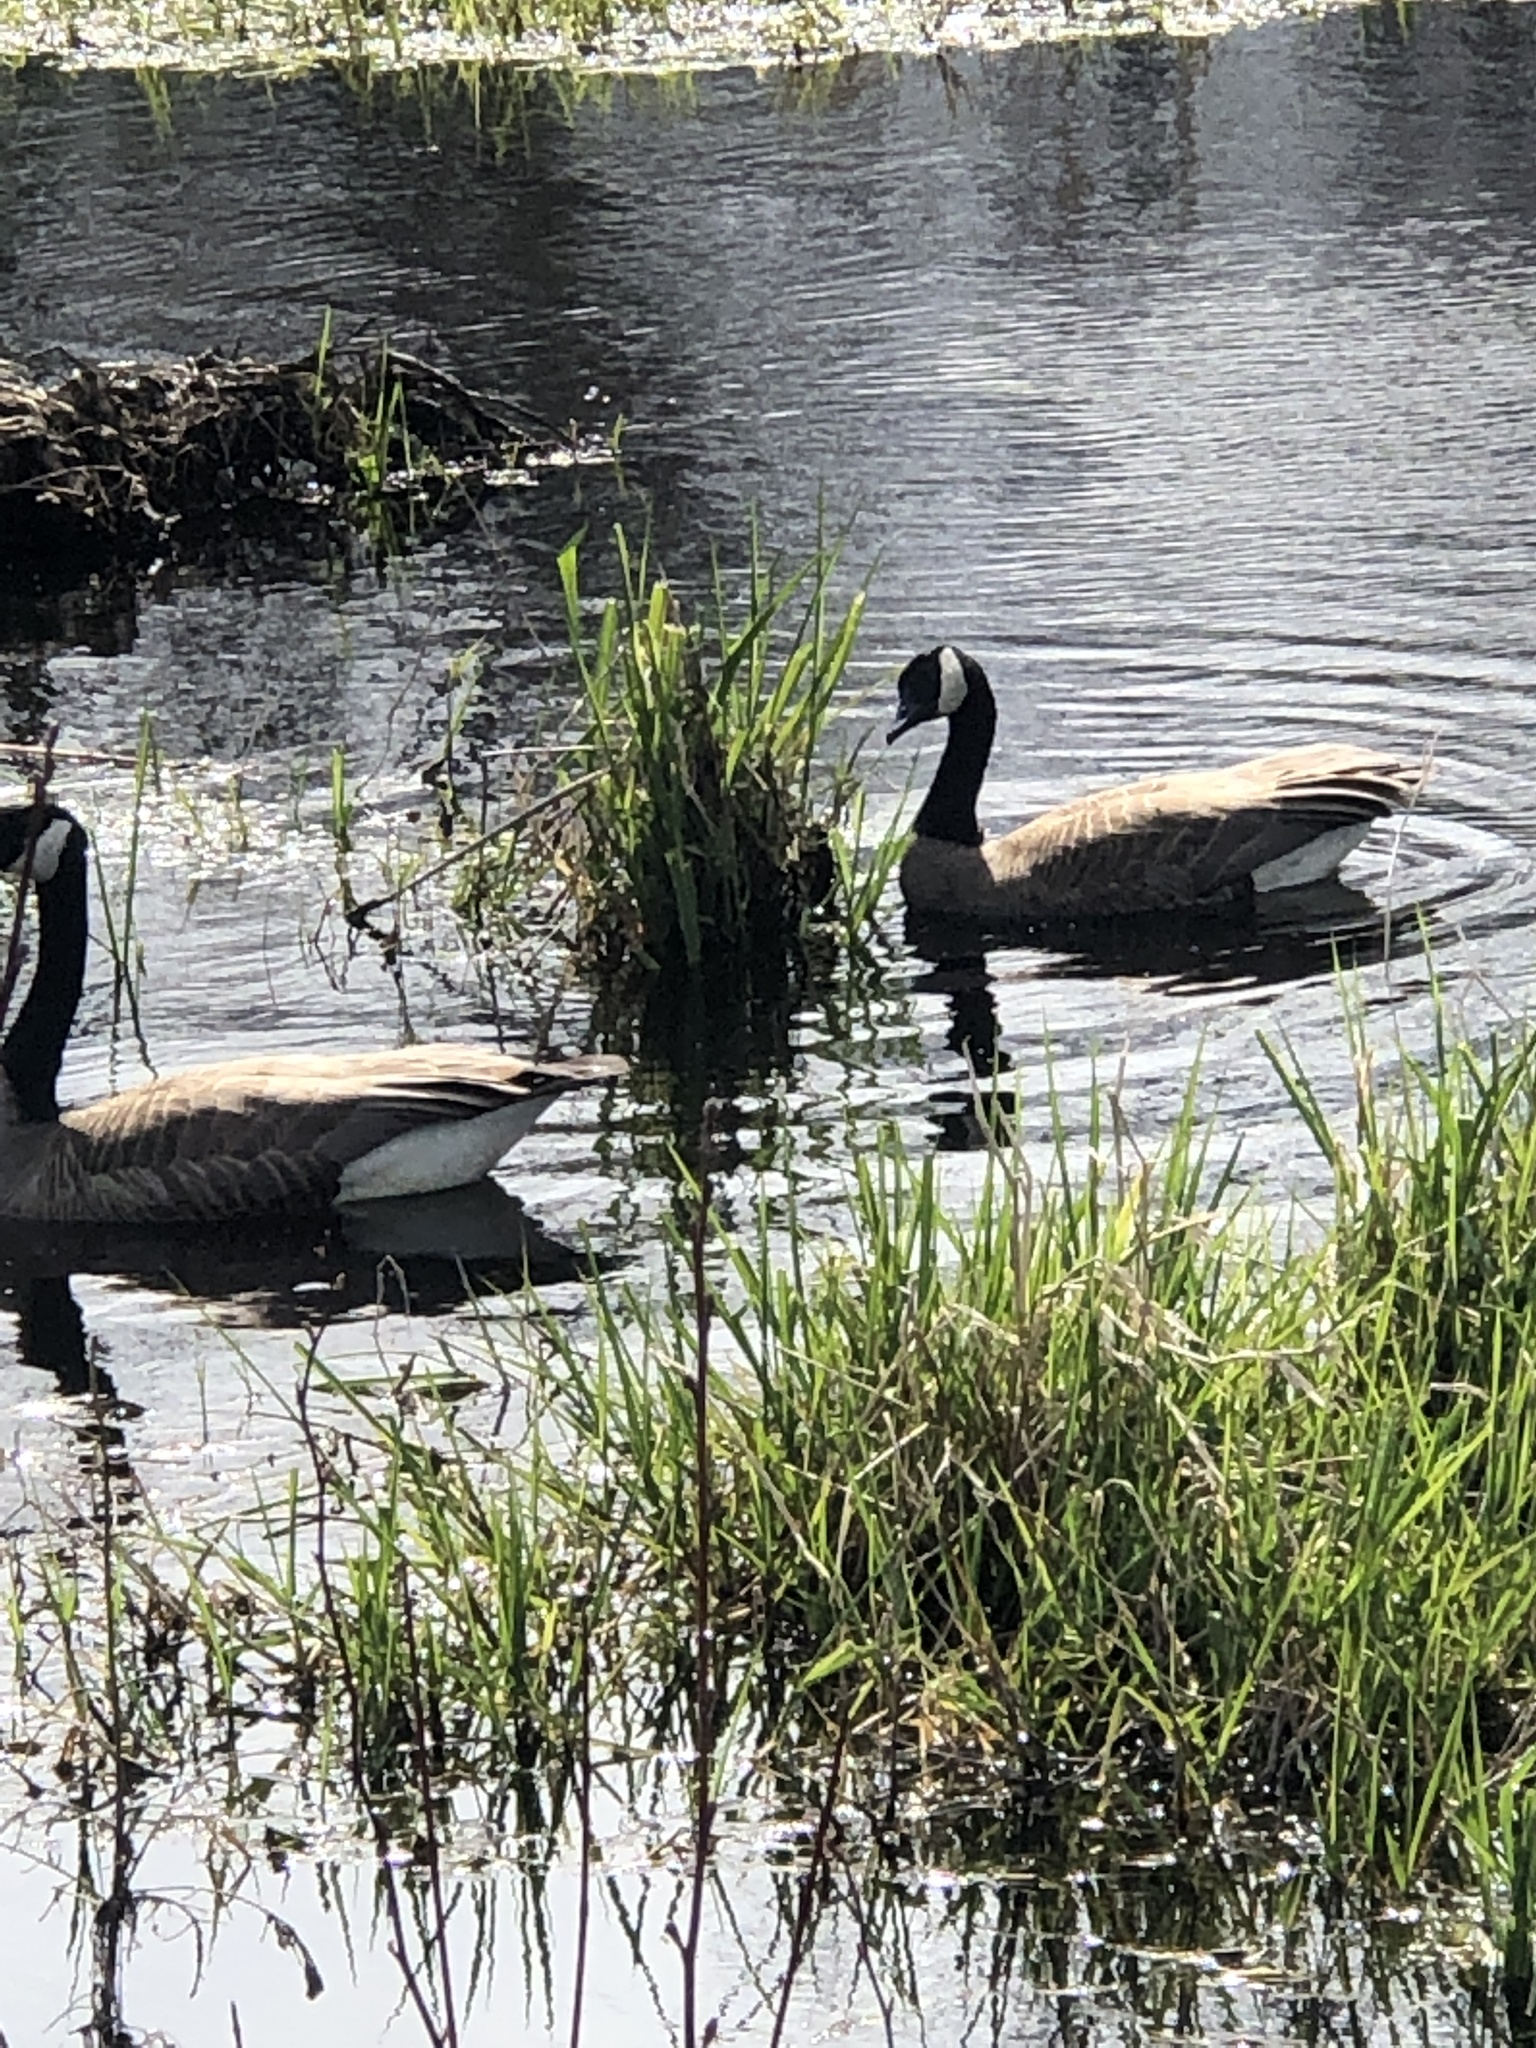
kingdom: Animalia
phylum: Chordata
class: Aves
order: Anseriformes
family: Anatidae
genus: Branta
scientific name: Branta canadensis
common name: Canada goose
